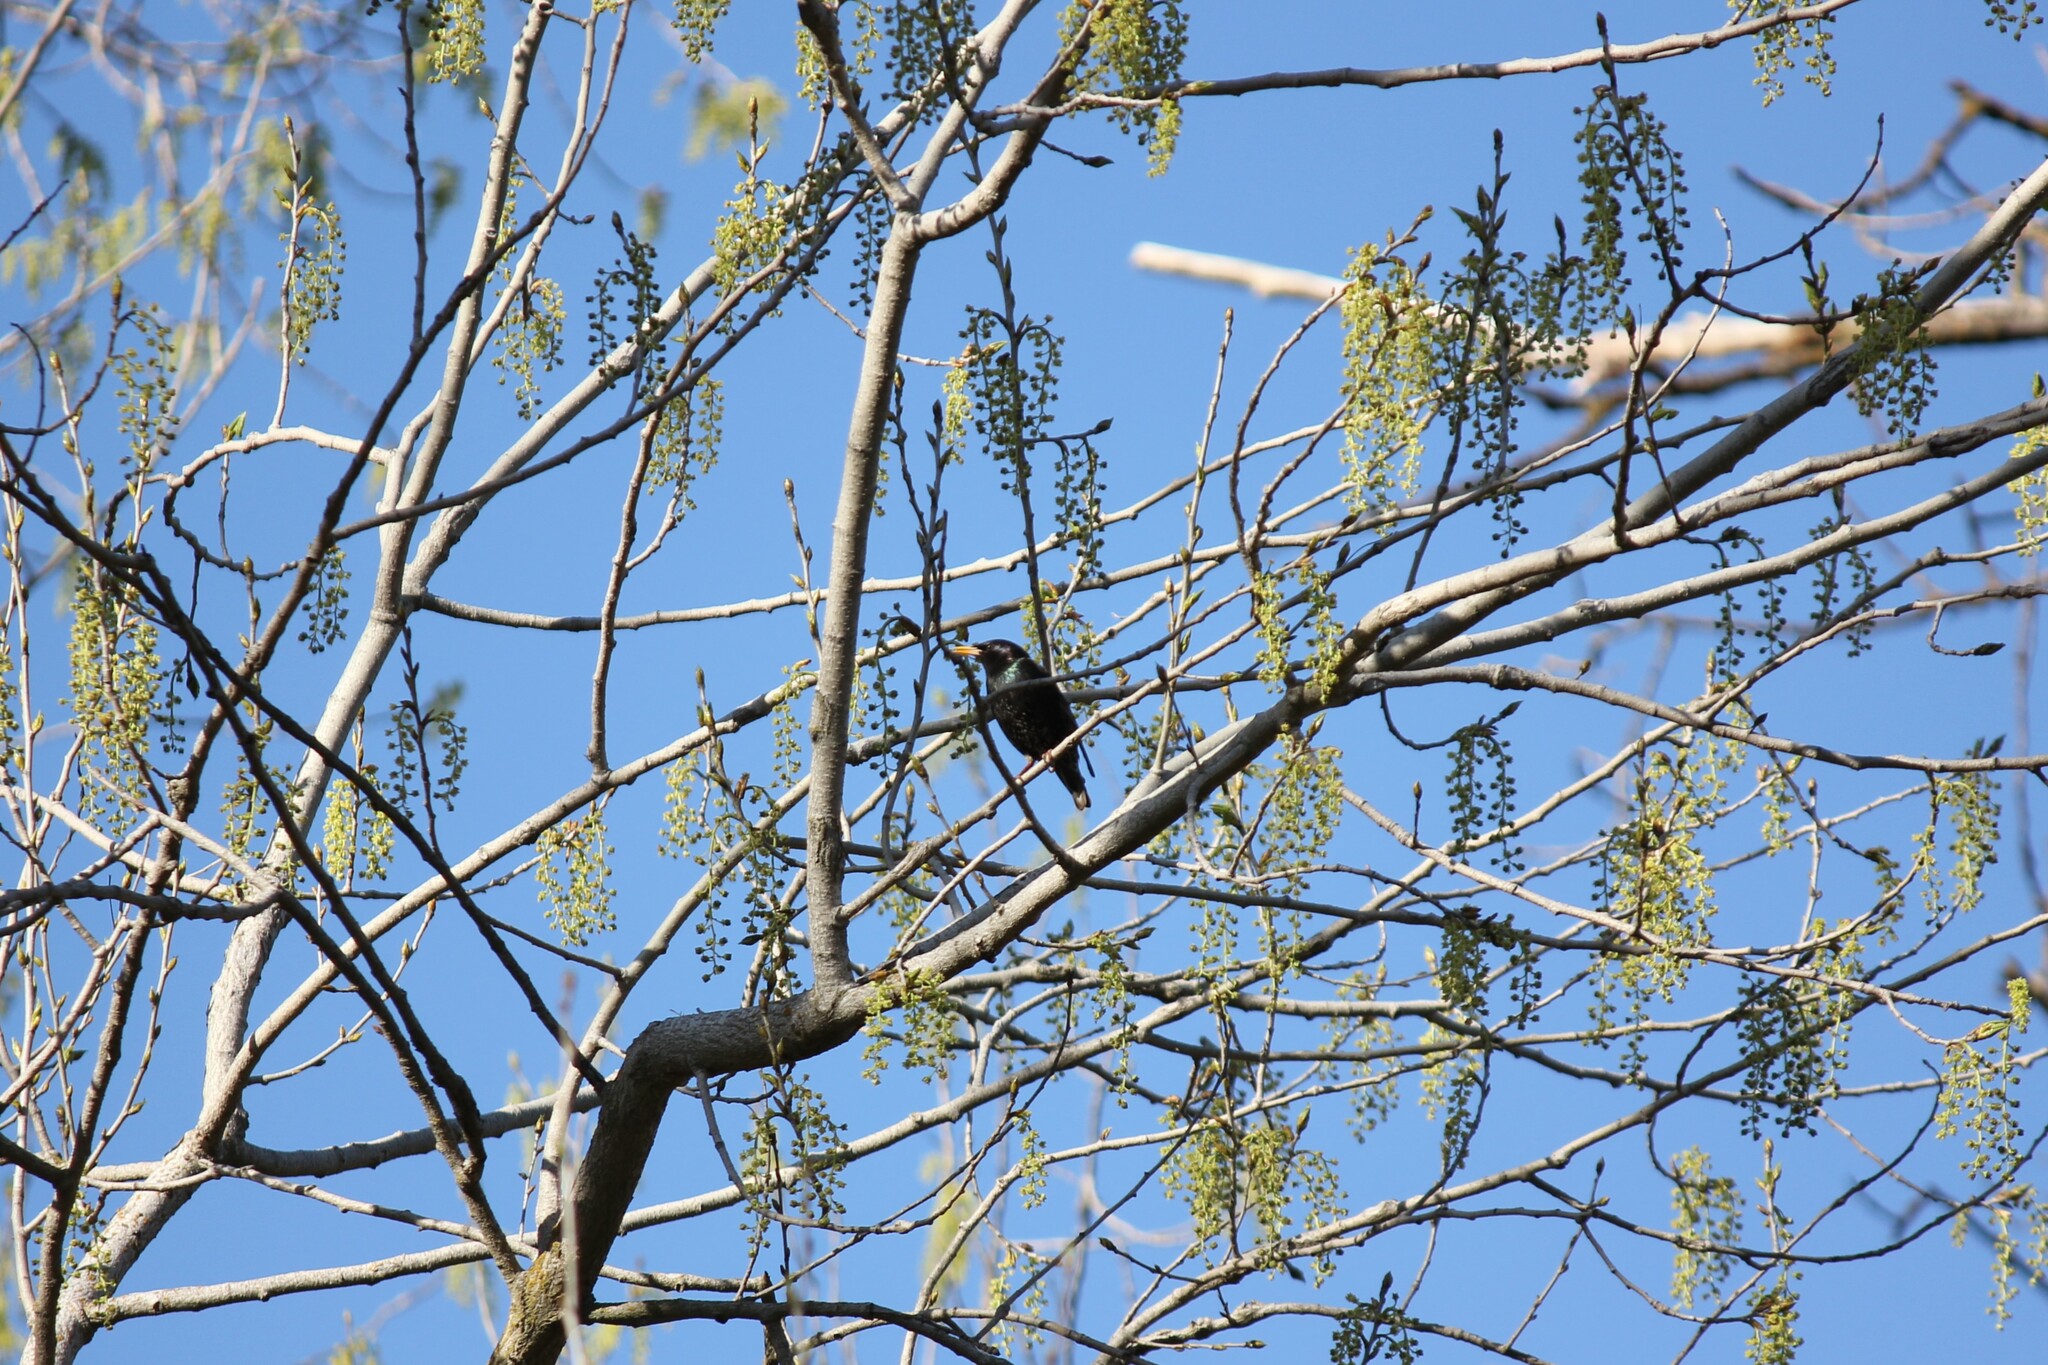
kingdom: Animalia
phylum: Chordata
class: Aves
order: Passeriformes
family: Sturnidae
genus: Sturnus
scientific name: Sturnus vulgaris
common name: Common starling
